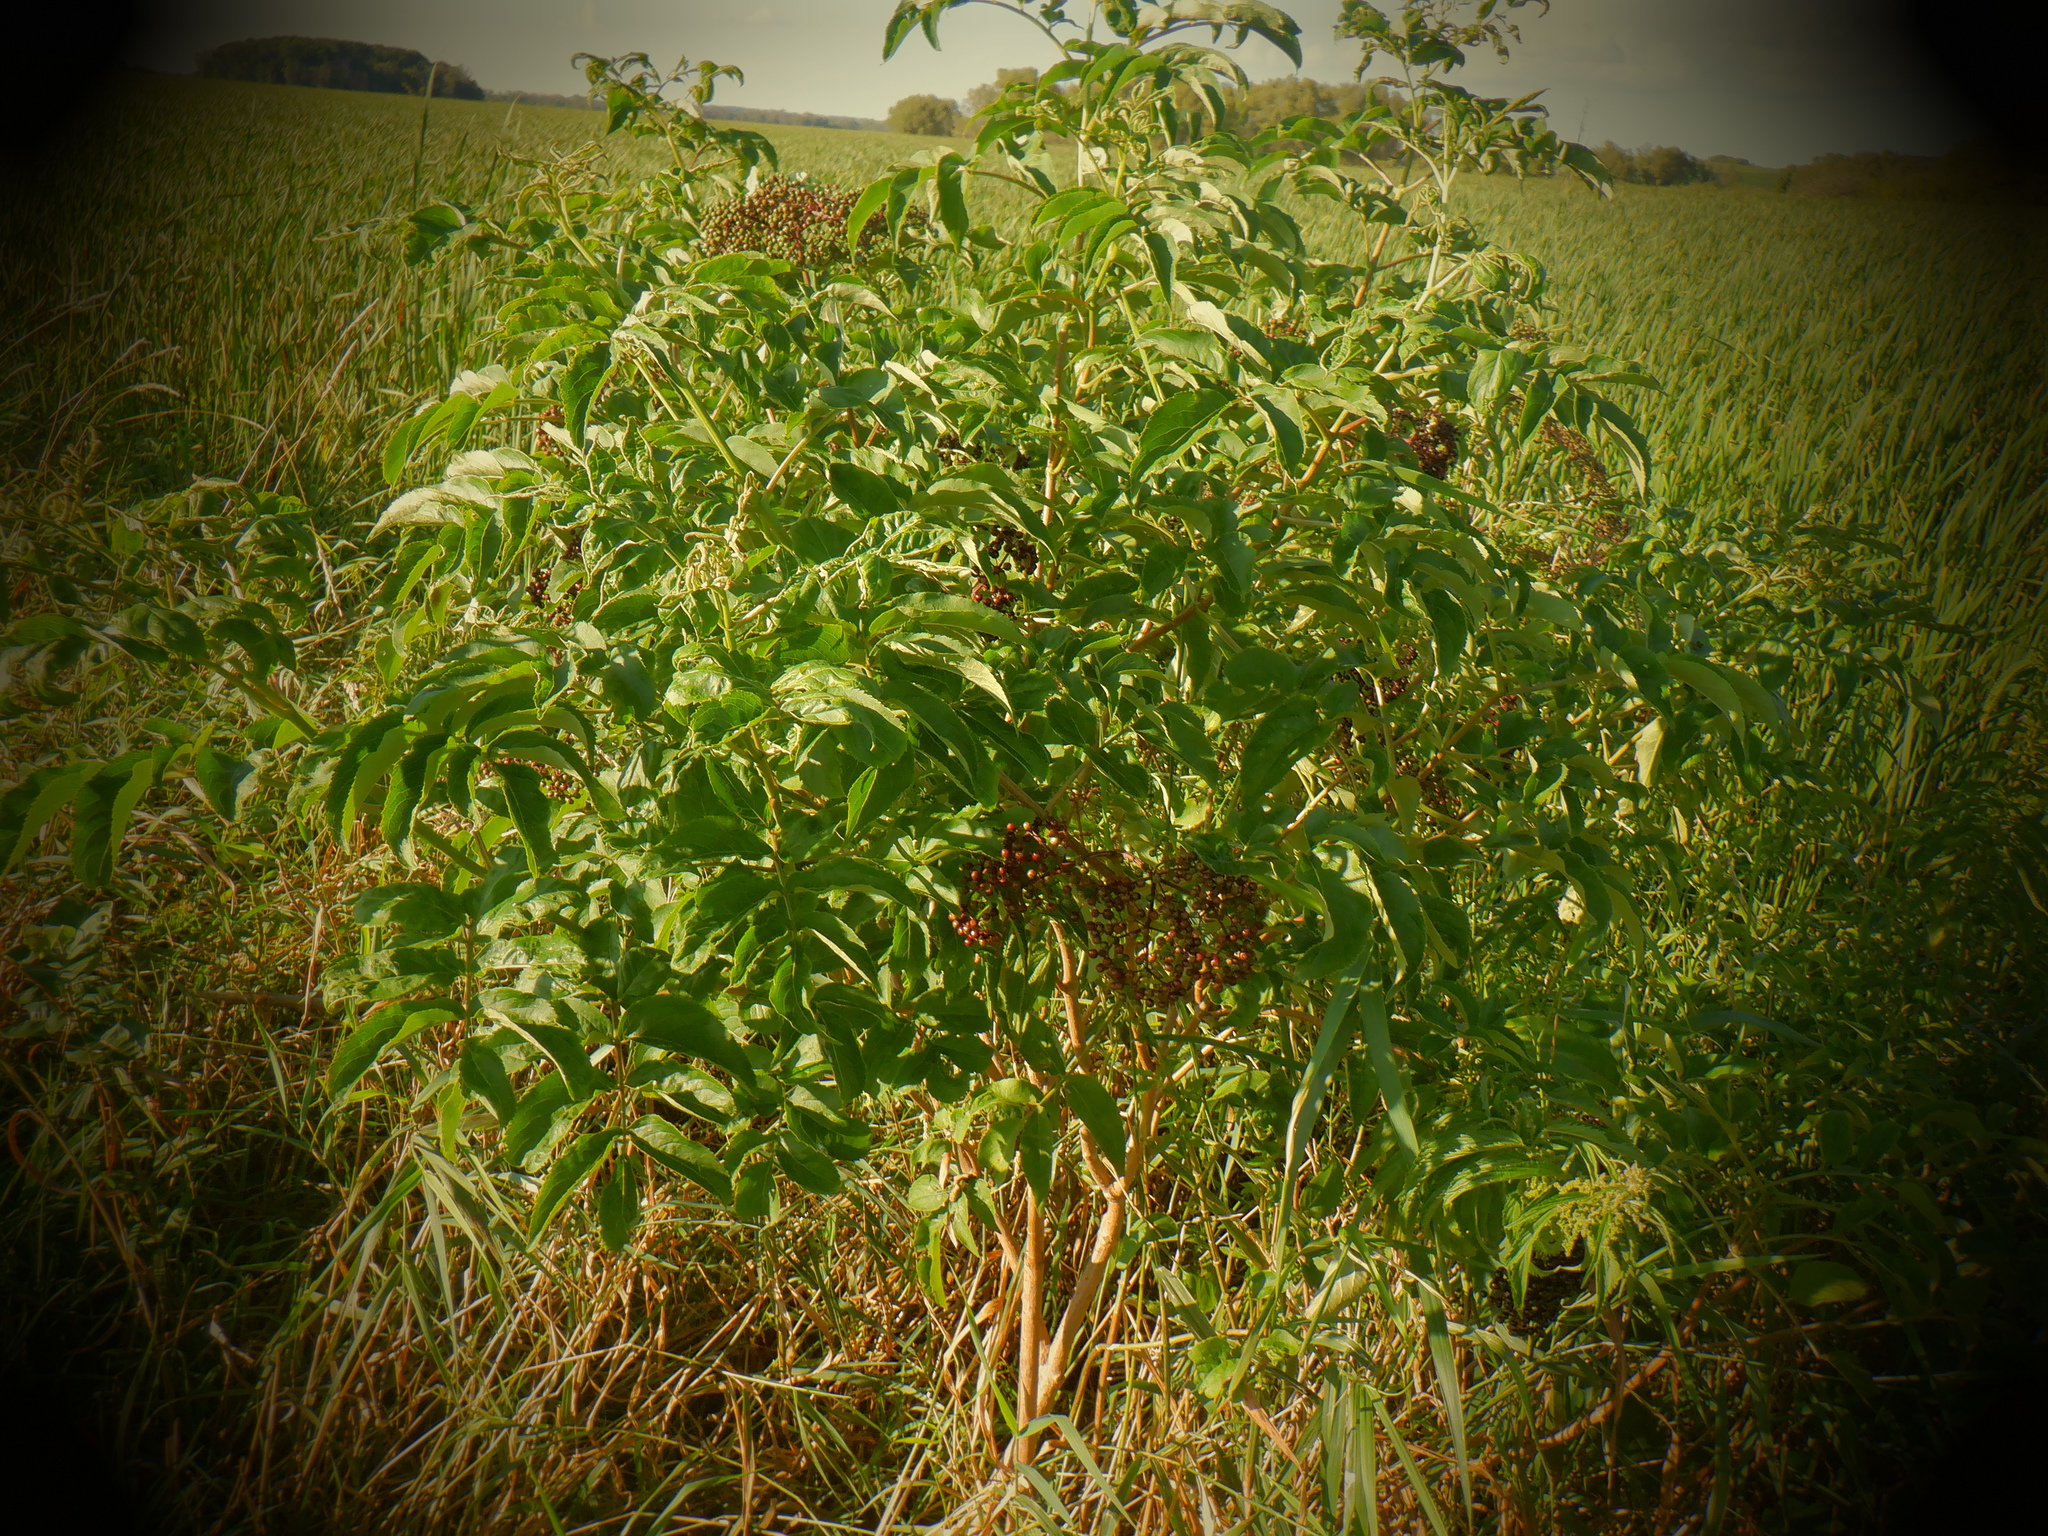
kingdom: Plantae
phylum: Tracheophyta
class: Magnoliopsida
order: Dipsacales
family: Viburnaceae
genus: Sambucus
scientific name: Sambucus canadensis
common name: American elder
